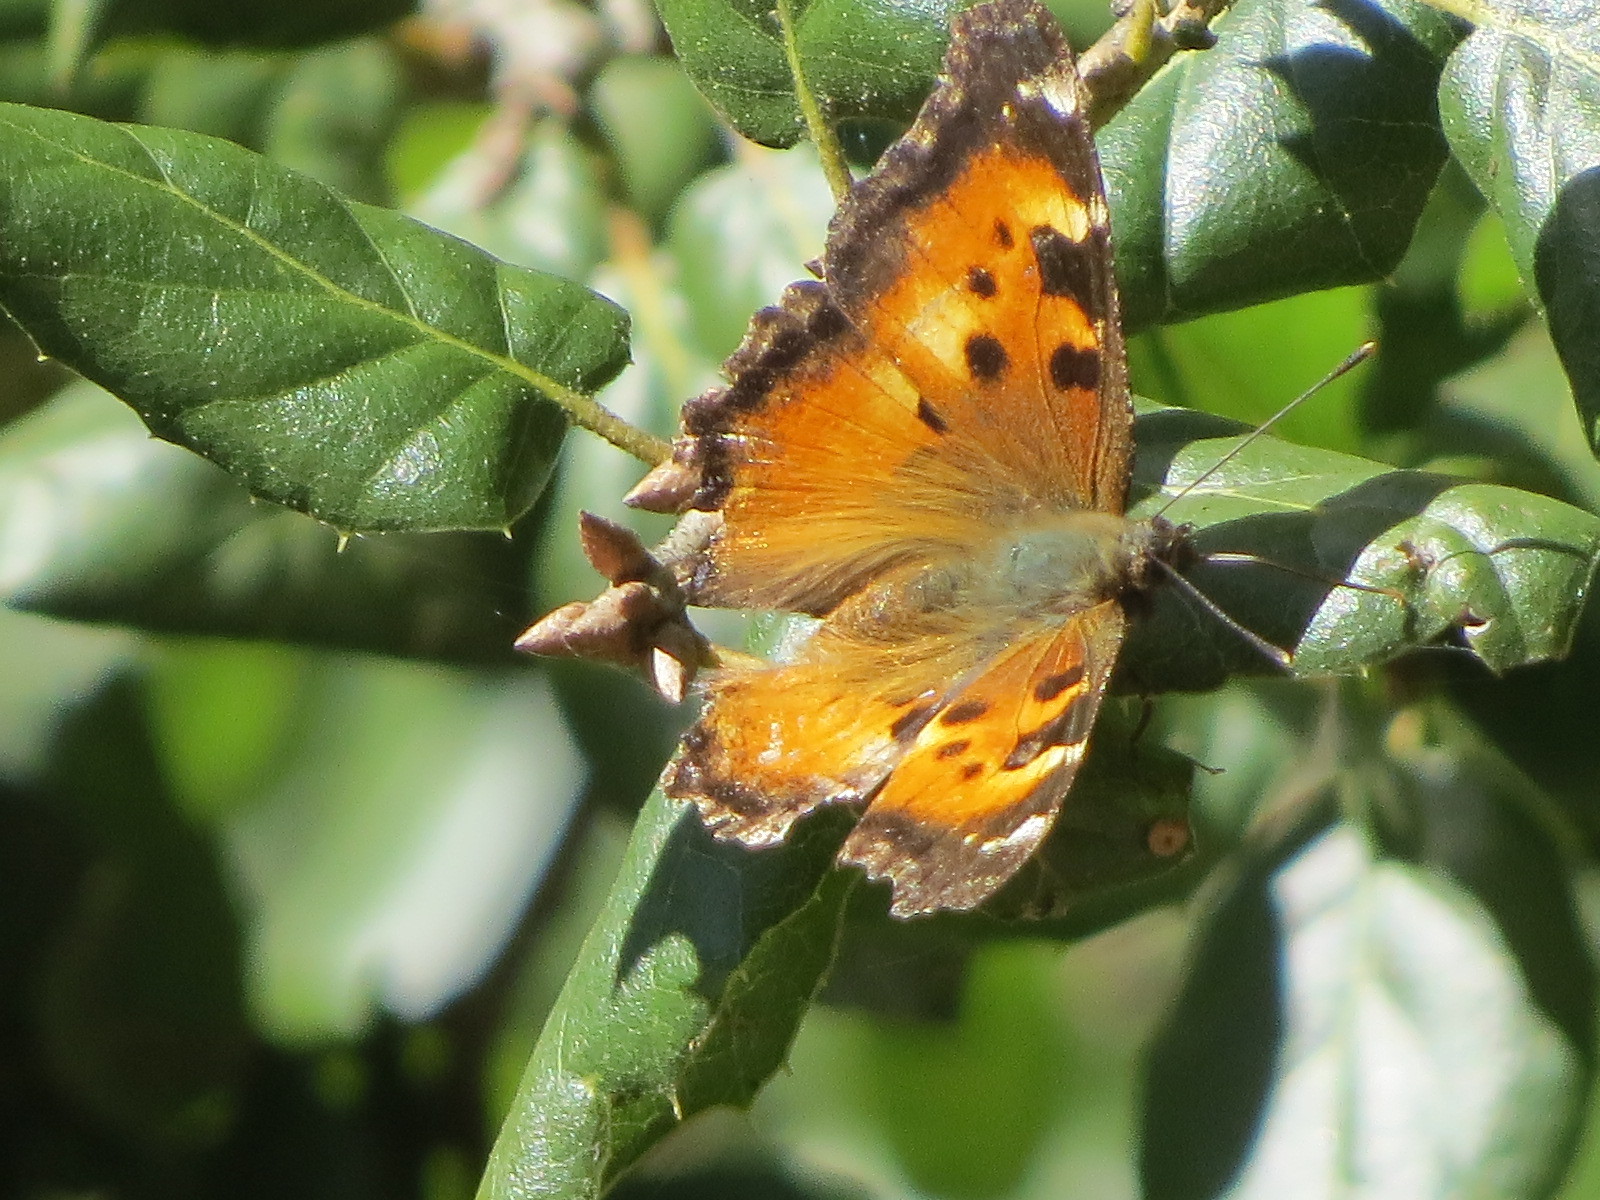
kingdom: Animalia
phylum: Arthropoda
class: Insecta
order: Lepidoptera
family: Nymphalidae
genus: Nymphalis
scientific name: Nymphalis californica
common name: California tortoiseshell
